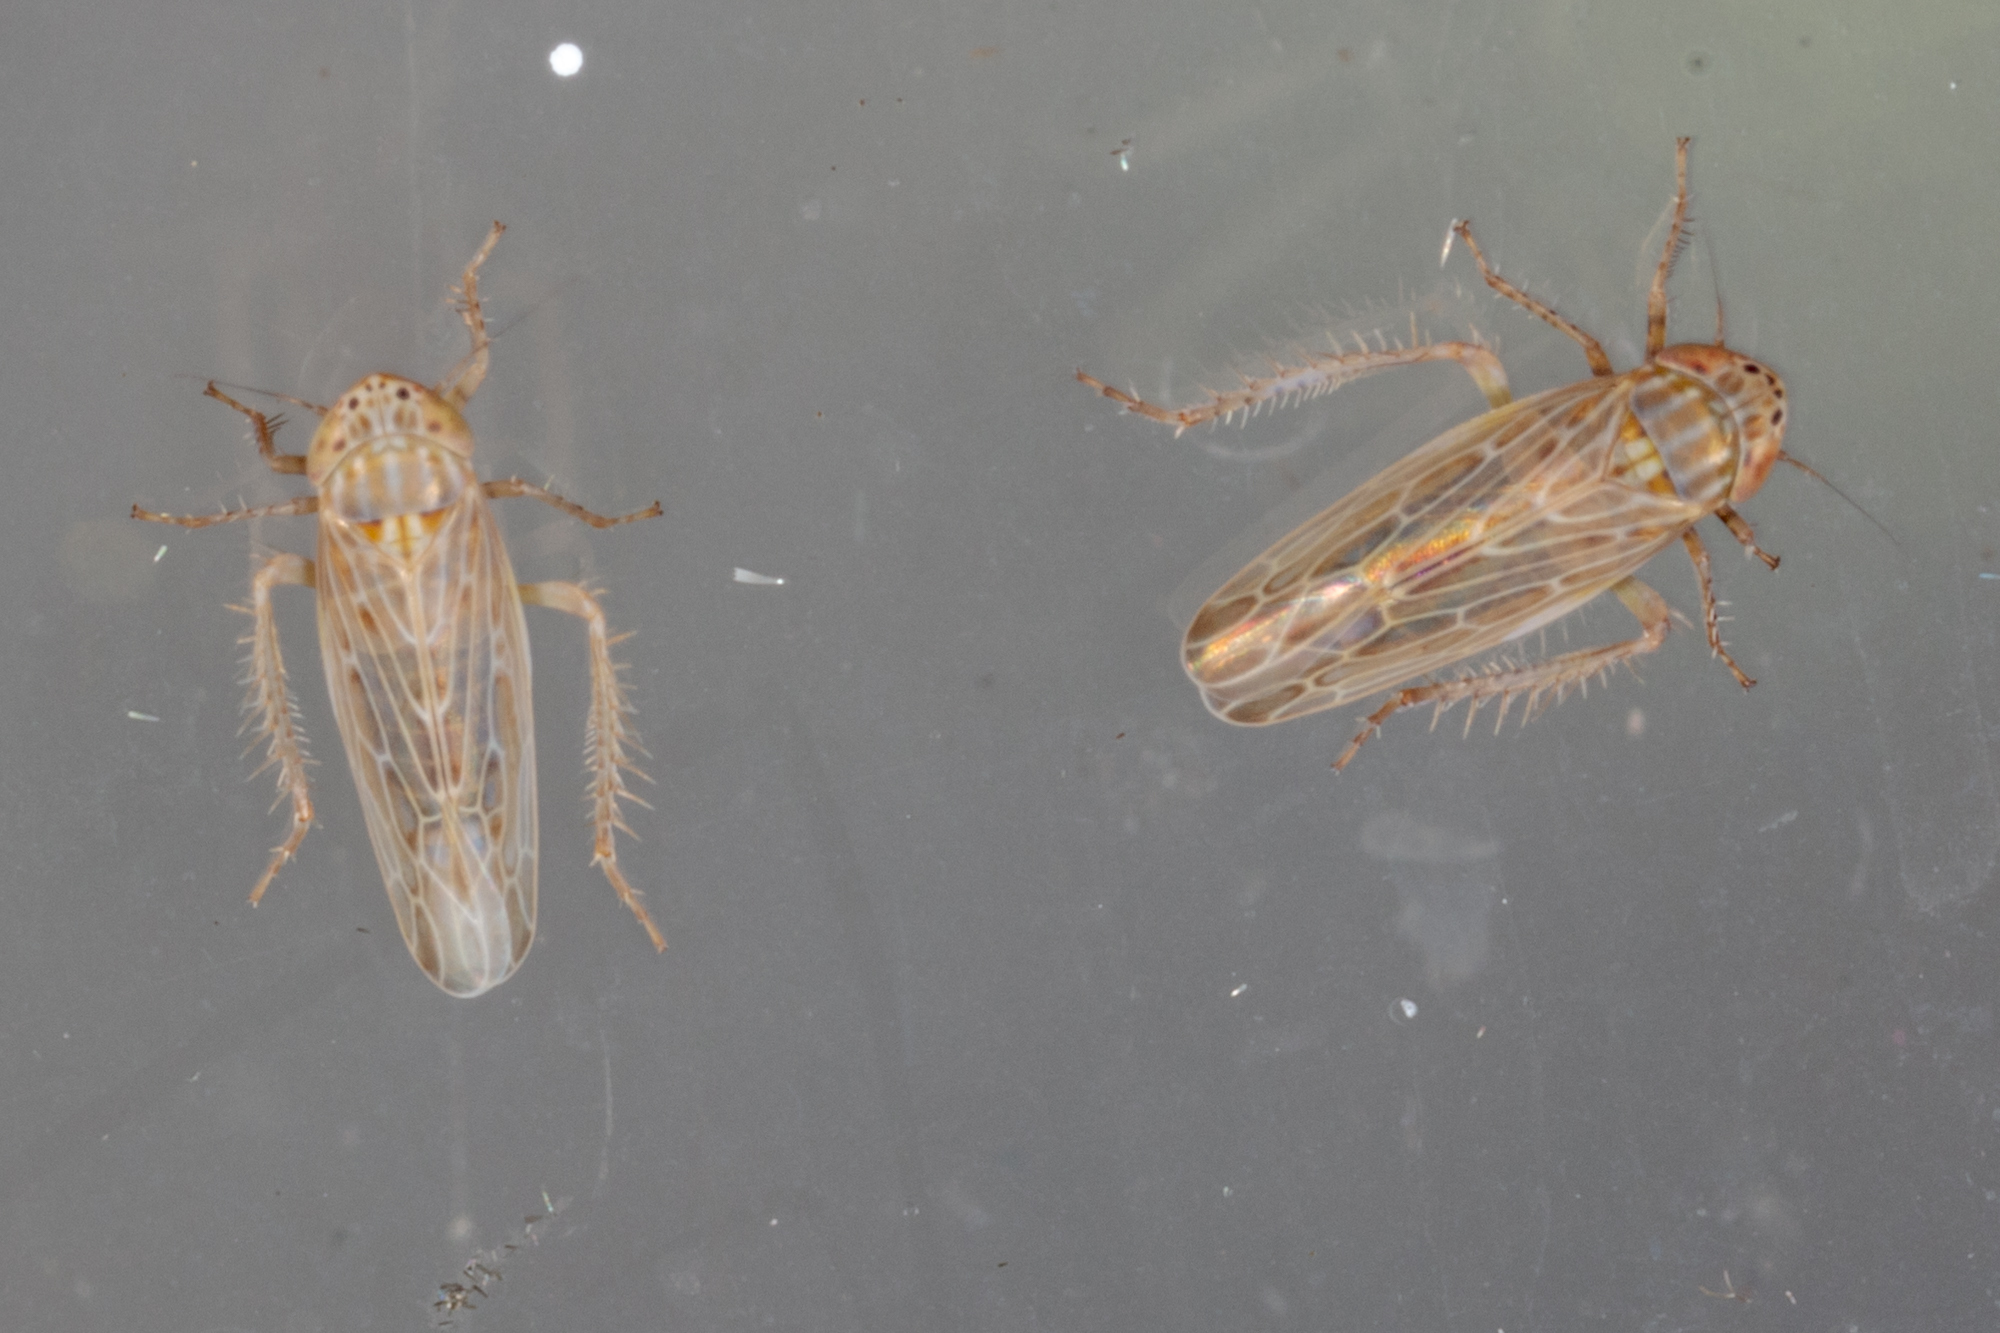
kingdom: Animalia
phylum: Arthropoda
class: Insecta
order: Hemiptera
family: Cicadellidae
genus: Graminella
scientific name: Graminella sonora
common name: Lesser lawn leafhopper
